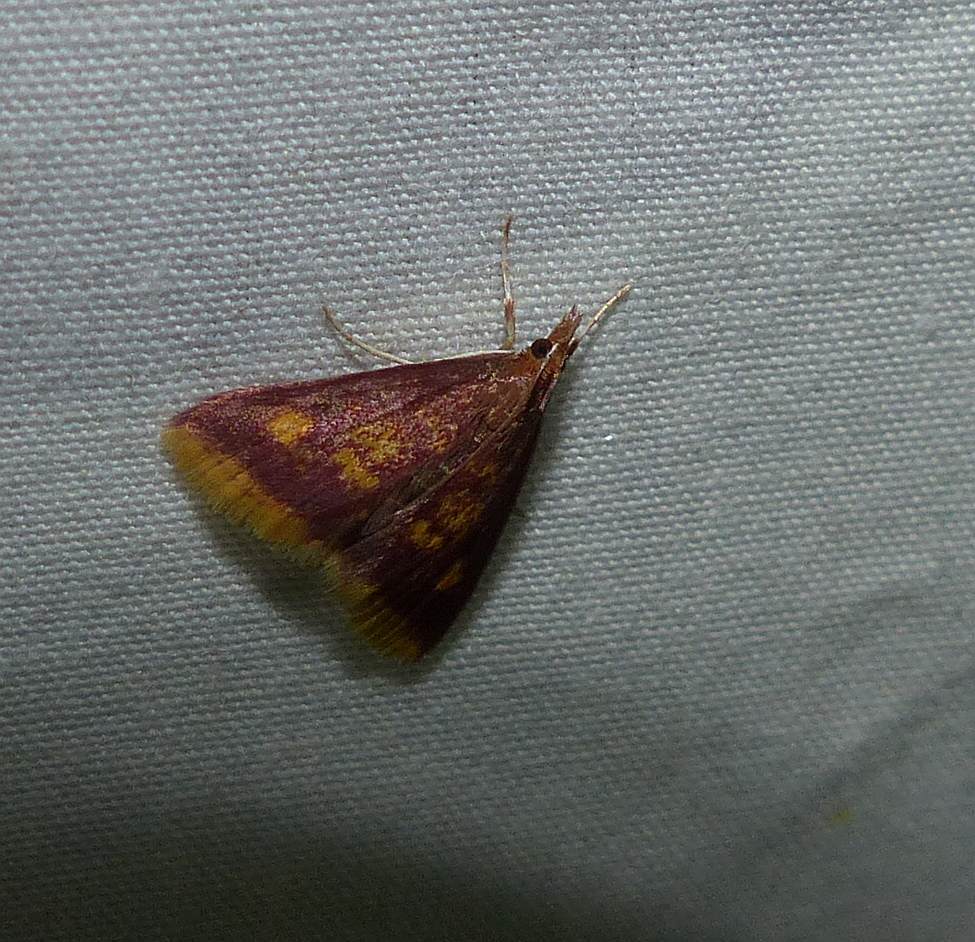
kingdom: Animalia
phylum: Arthropoda
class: Insecta
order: Lepidoptera
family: Crambidae
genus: Pyrausta
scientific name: Pyrausta acrionalis
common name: Mint-loving pyrausta moth
